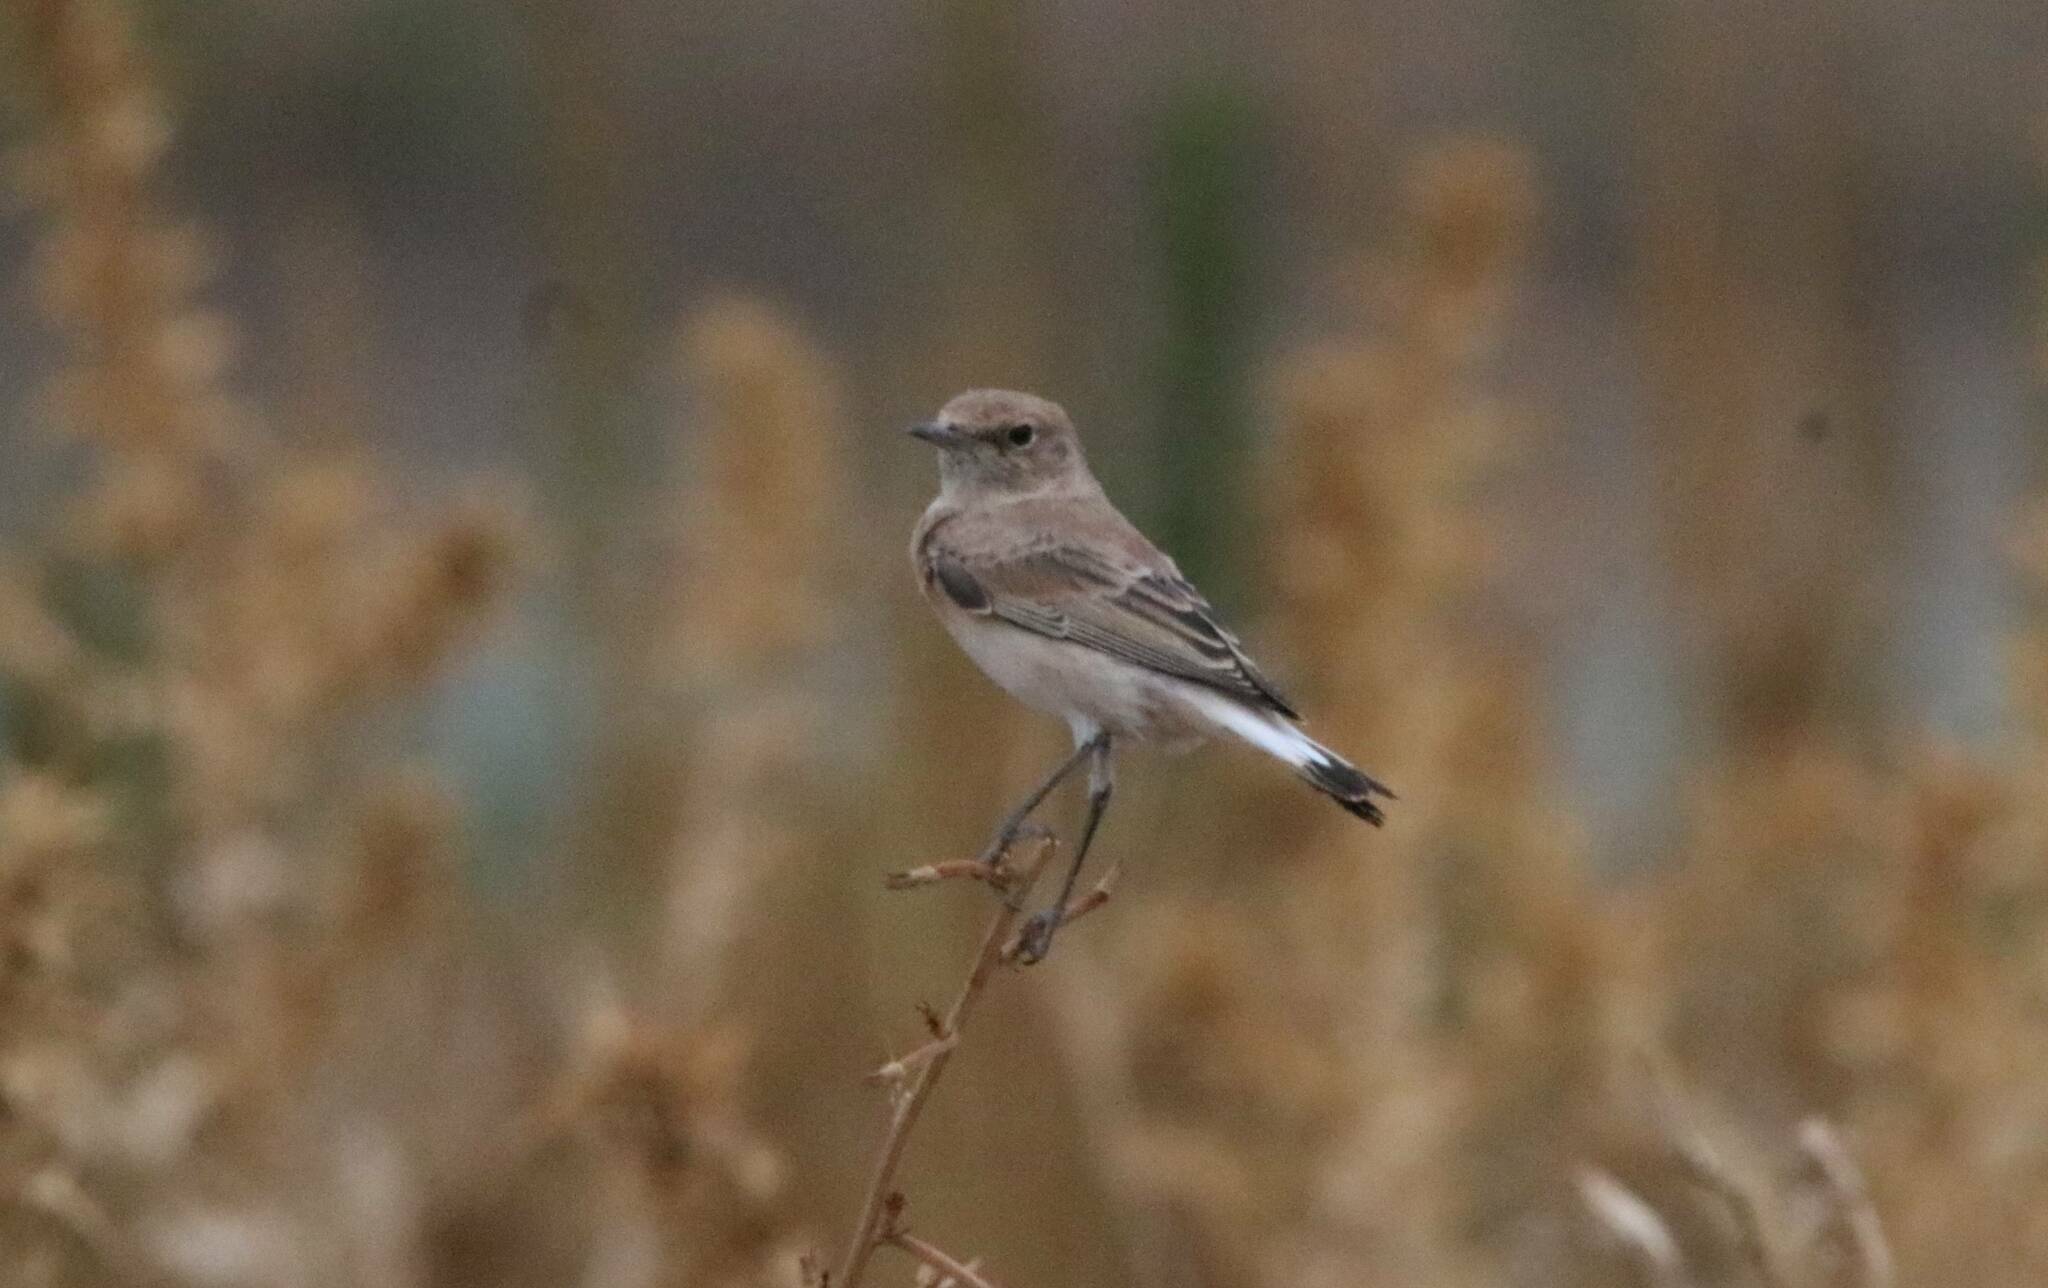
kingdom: Animalia
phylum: Chordata
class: Aves
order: Passeriformes
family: Muscicapidae
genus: Oenanthe
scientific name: Oenanthe hispanica
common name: Black-eared wheatear
